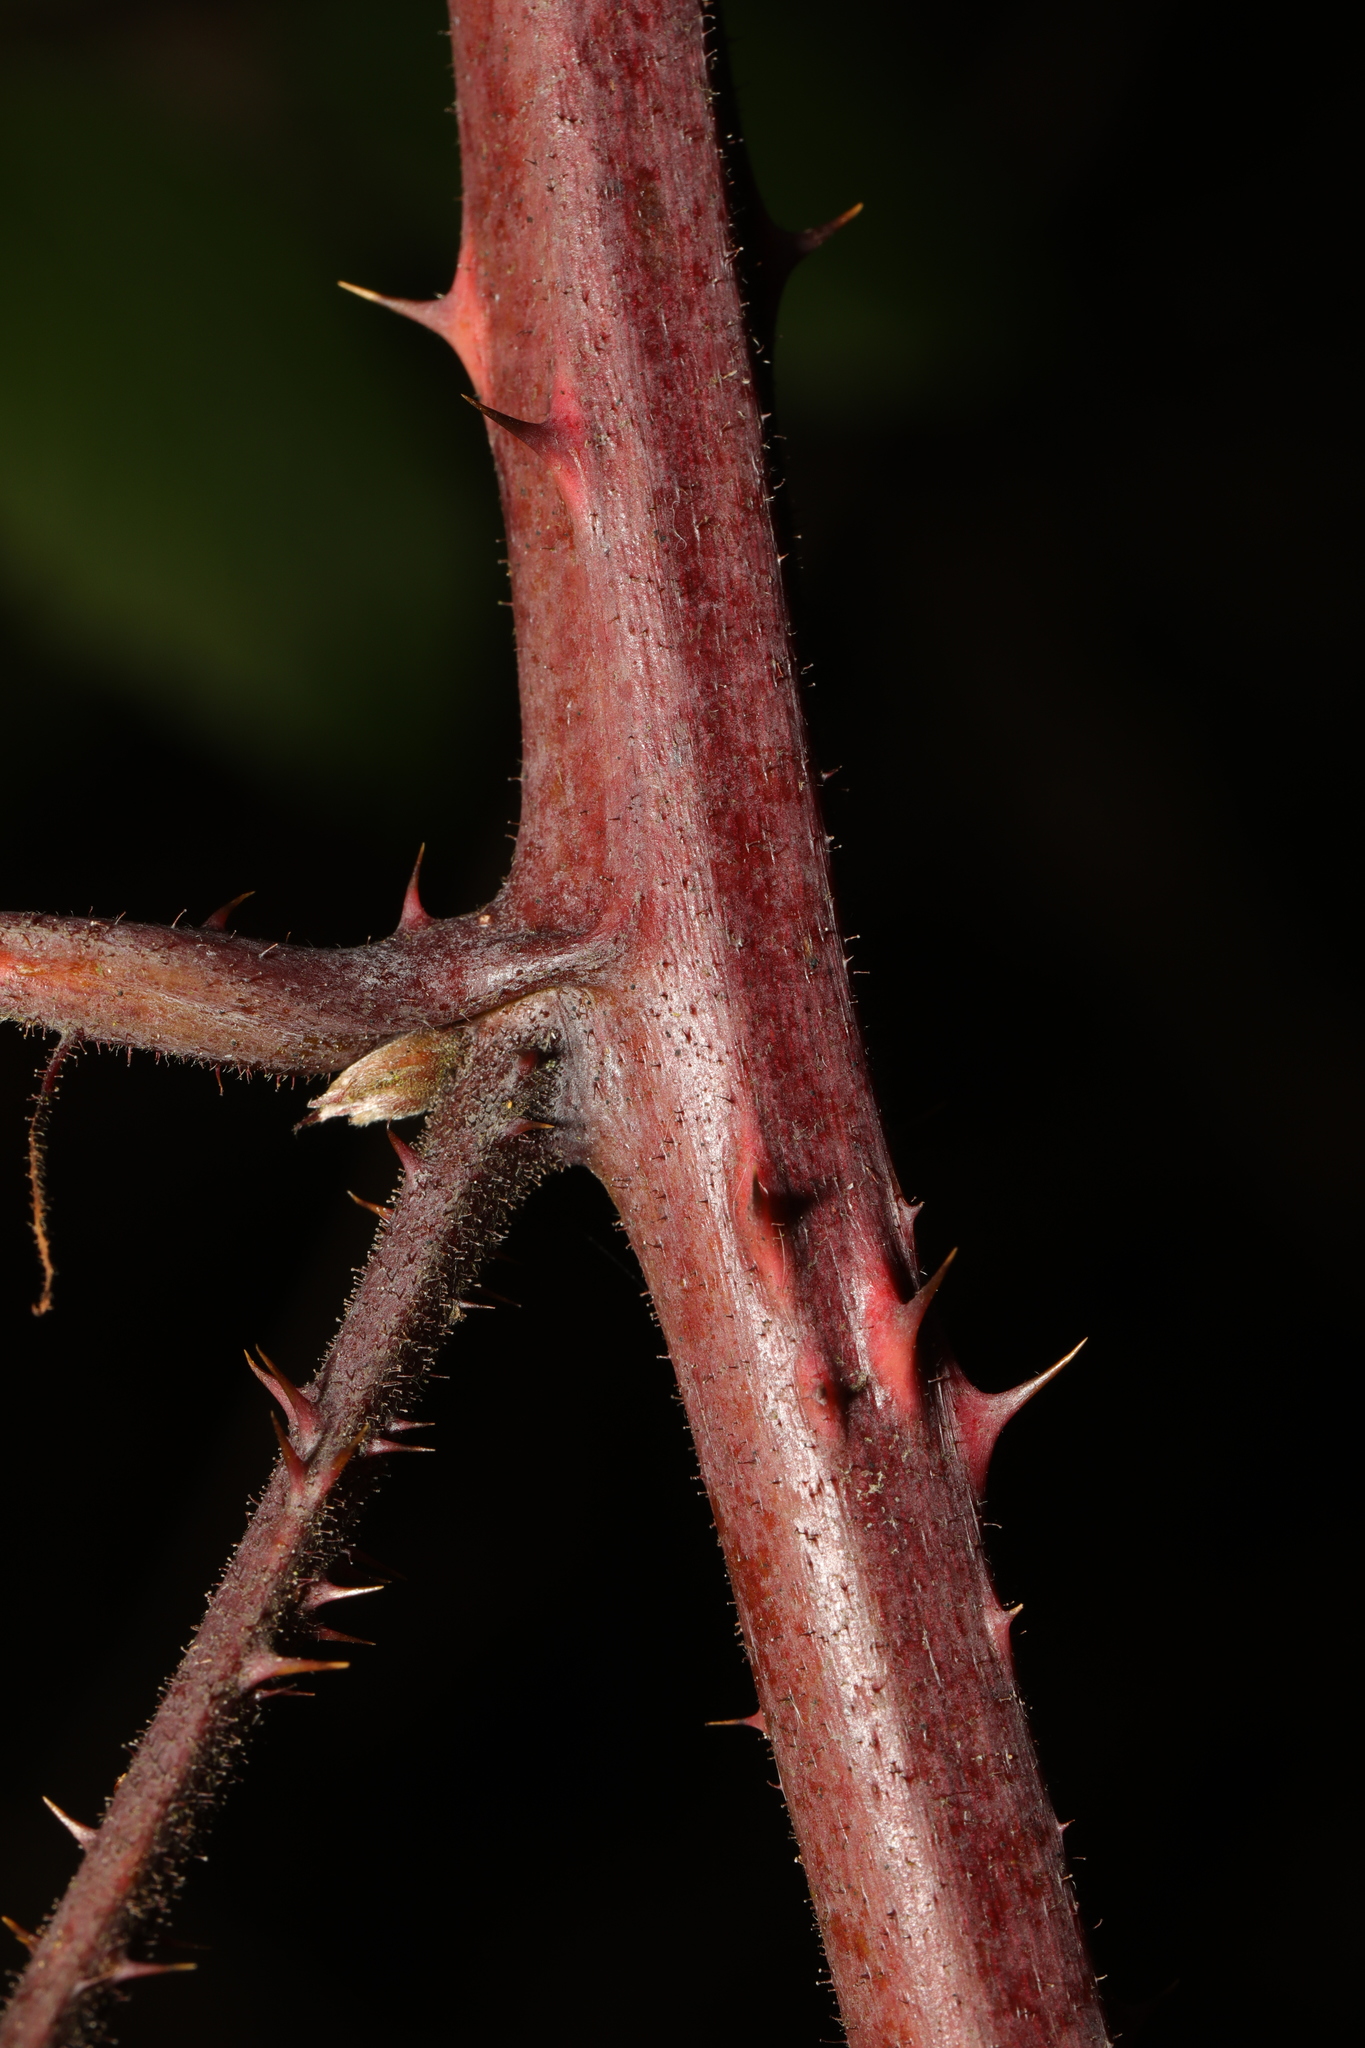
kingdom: Plantae
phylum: Tracheophyta
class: Magnoliopsida
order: Rosales
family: Rosaceae
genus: Rubus
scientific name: Rubus rufescens
